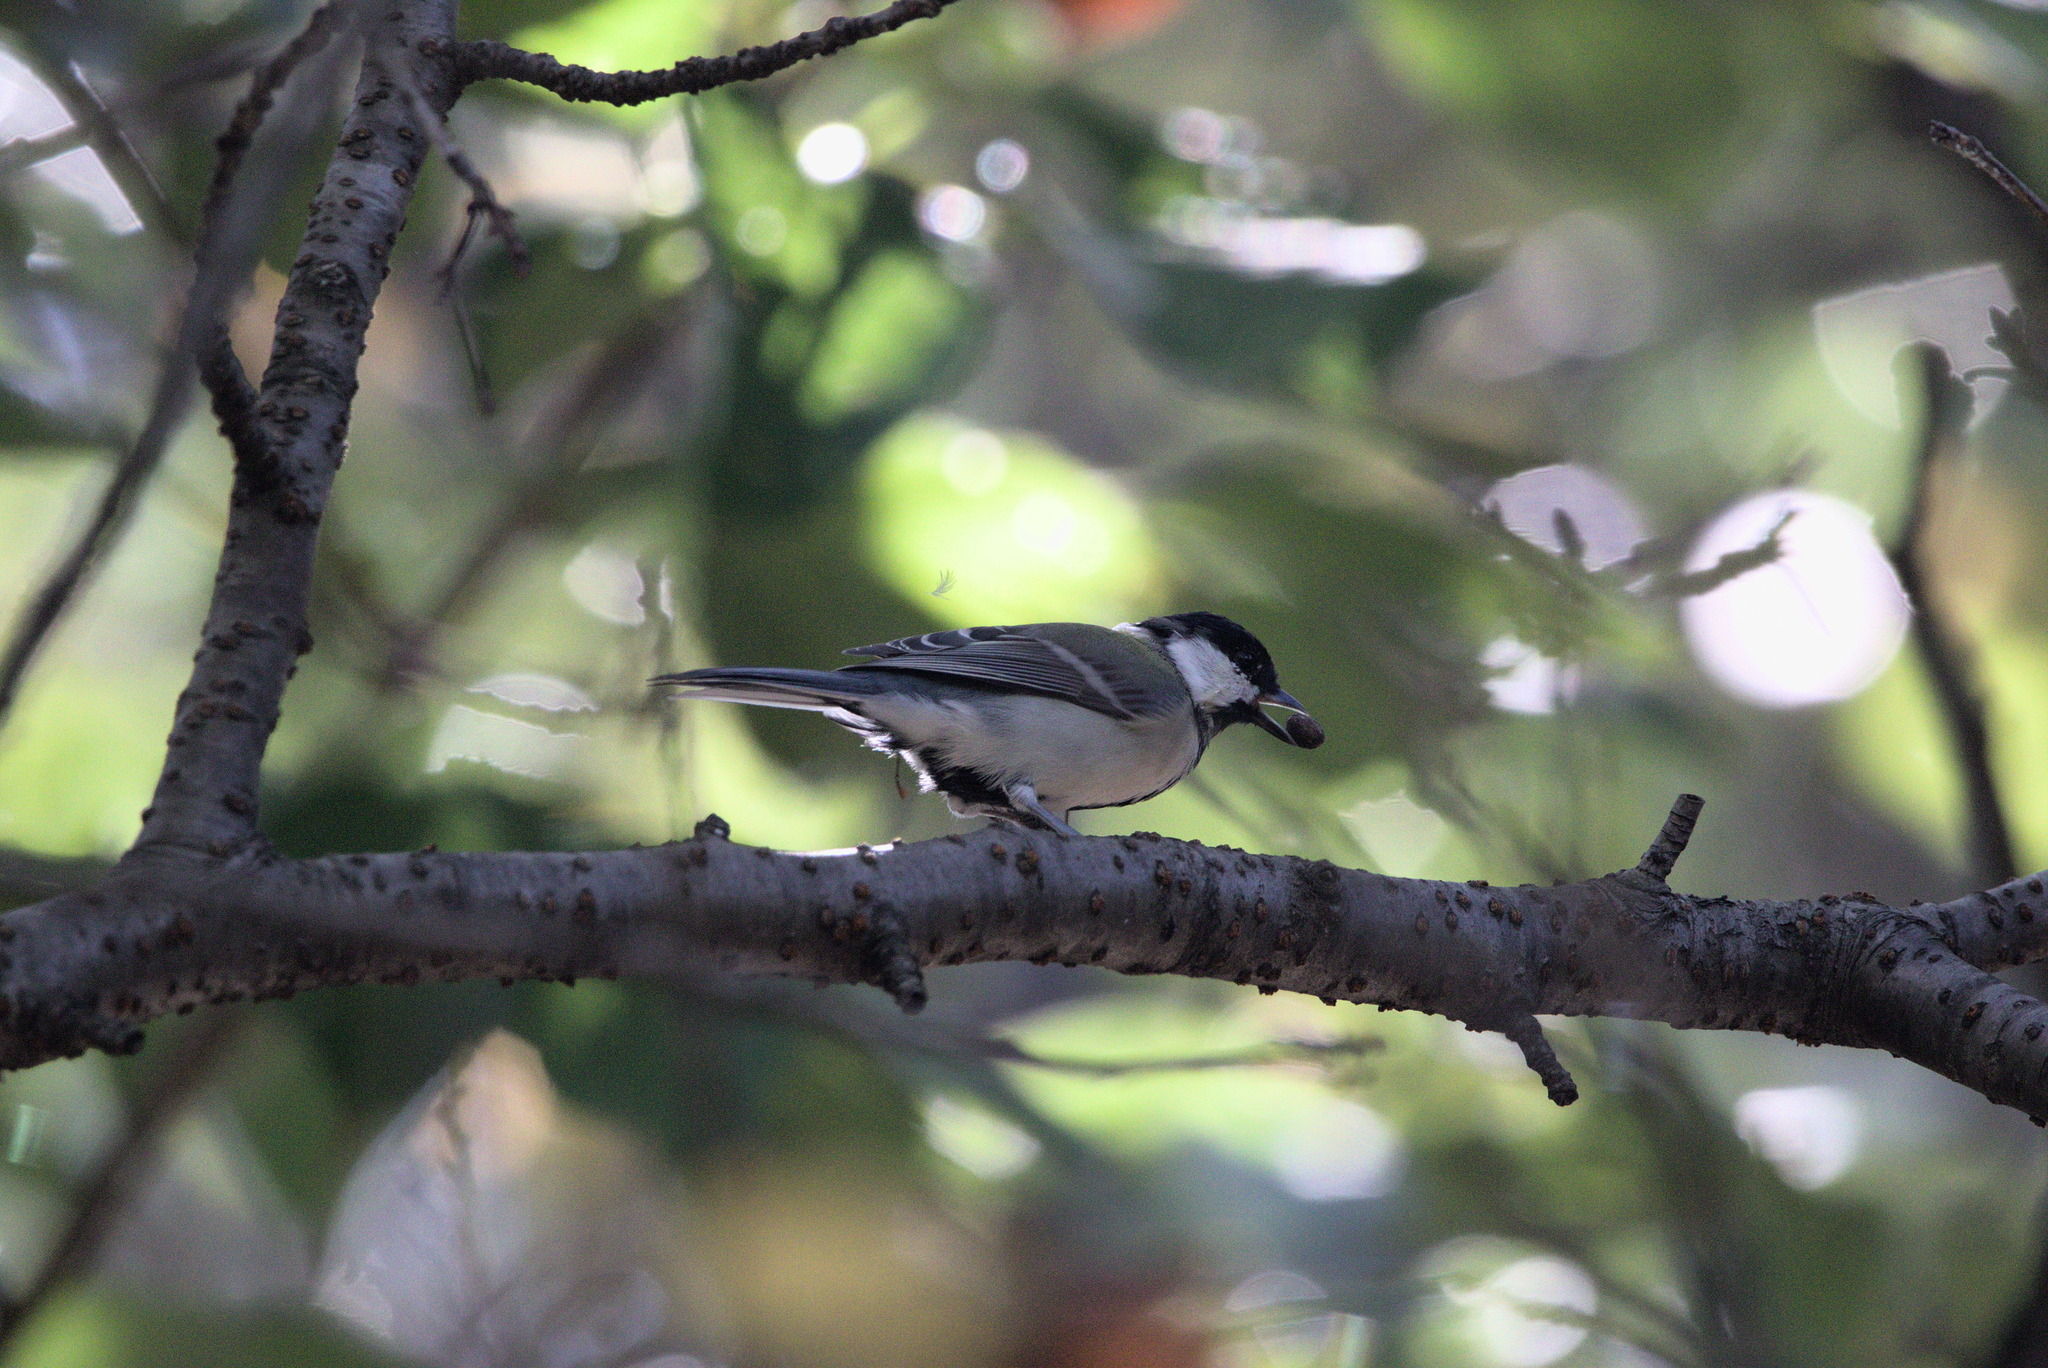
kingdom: Animalia
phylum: Chordata
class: Aves
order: Passeriformes
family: Paridae
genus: Parus
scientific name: Parus minor
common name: Japanese tit
